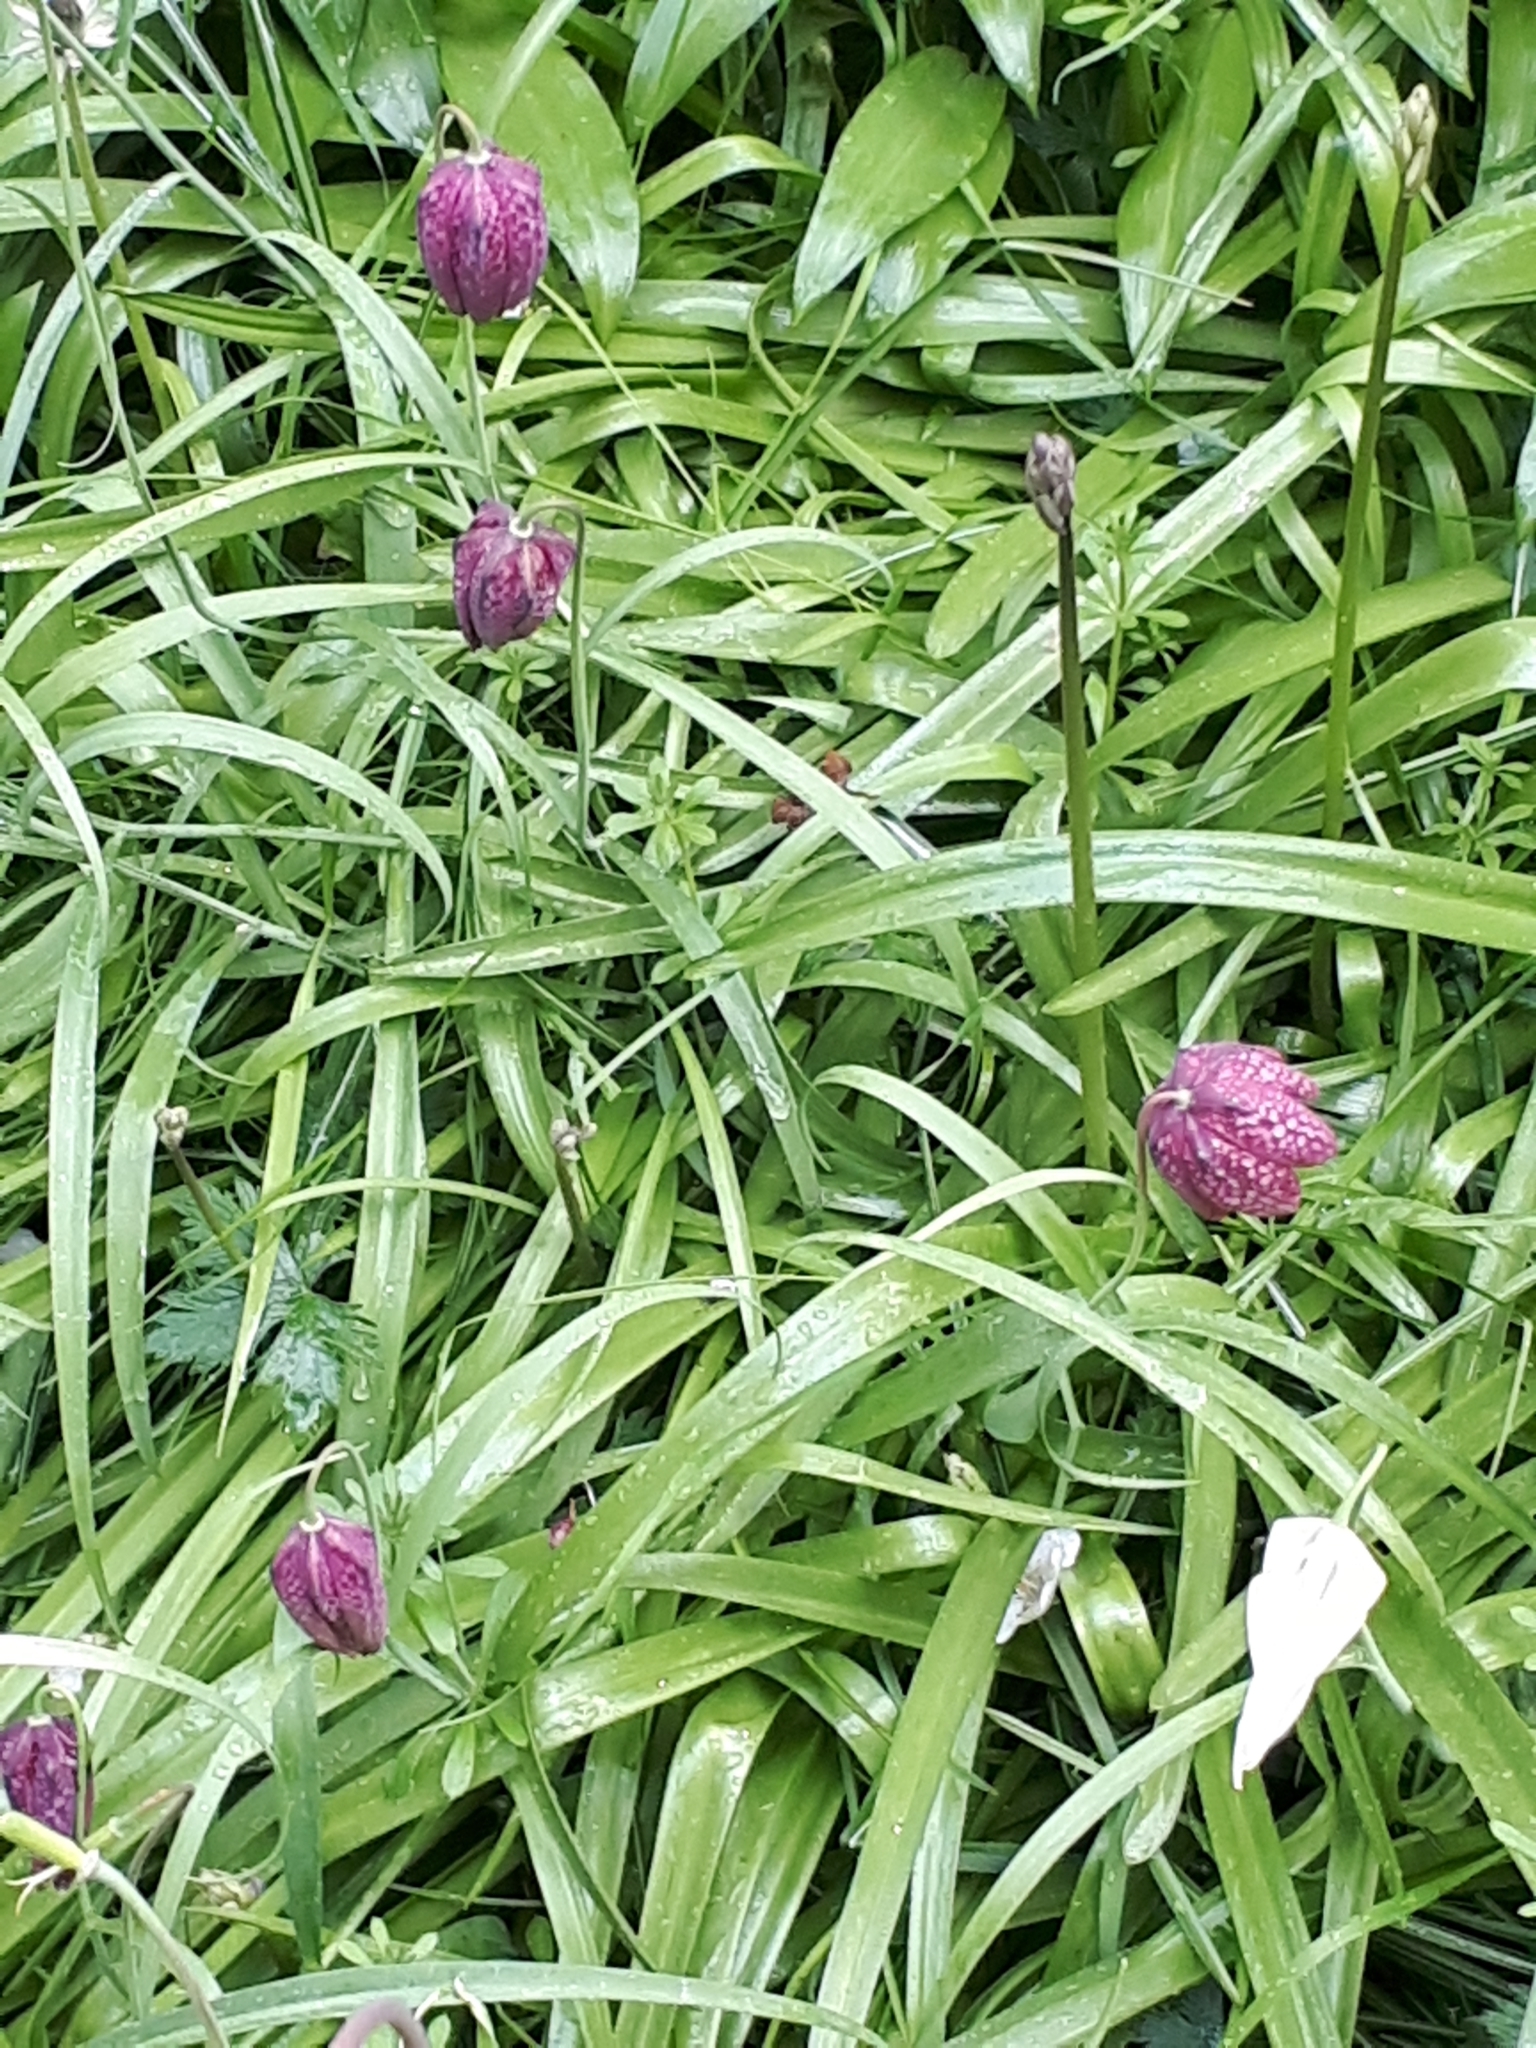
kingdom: Plantae
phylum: Tracheophyta
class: Liliopsida
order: Liliales
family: Liliaceae
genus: Fritillaria
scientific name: Fritillaria meleagris
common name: Fritillary
